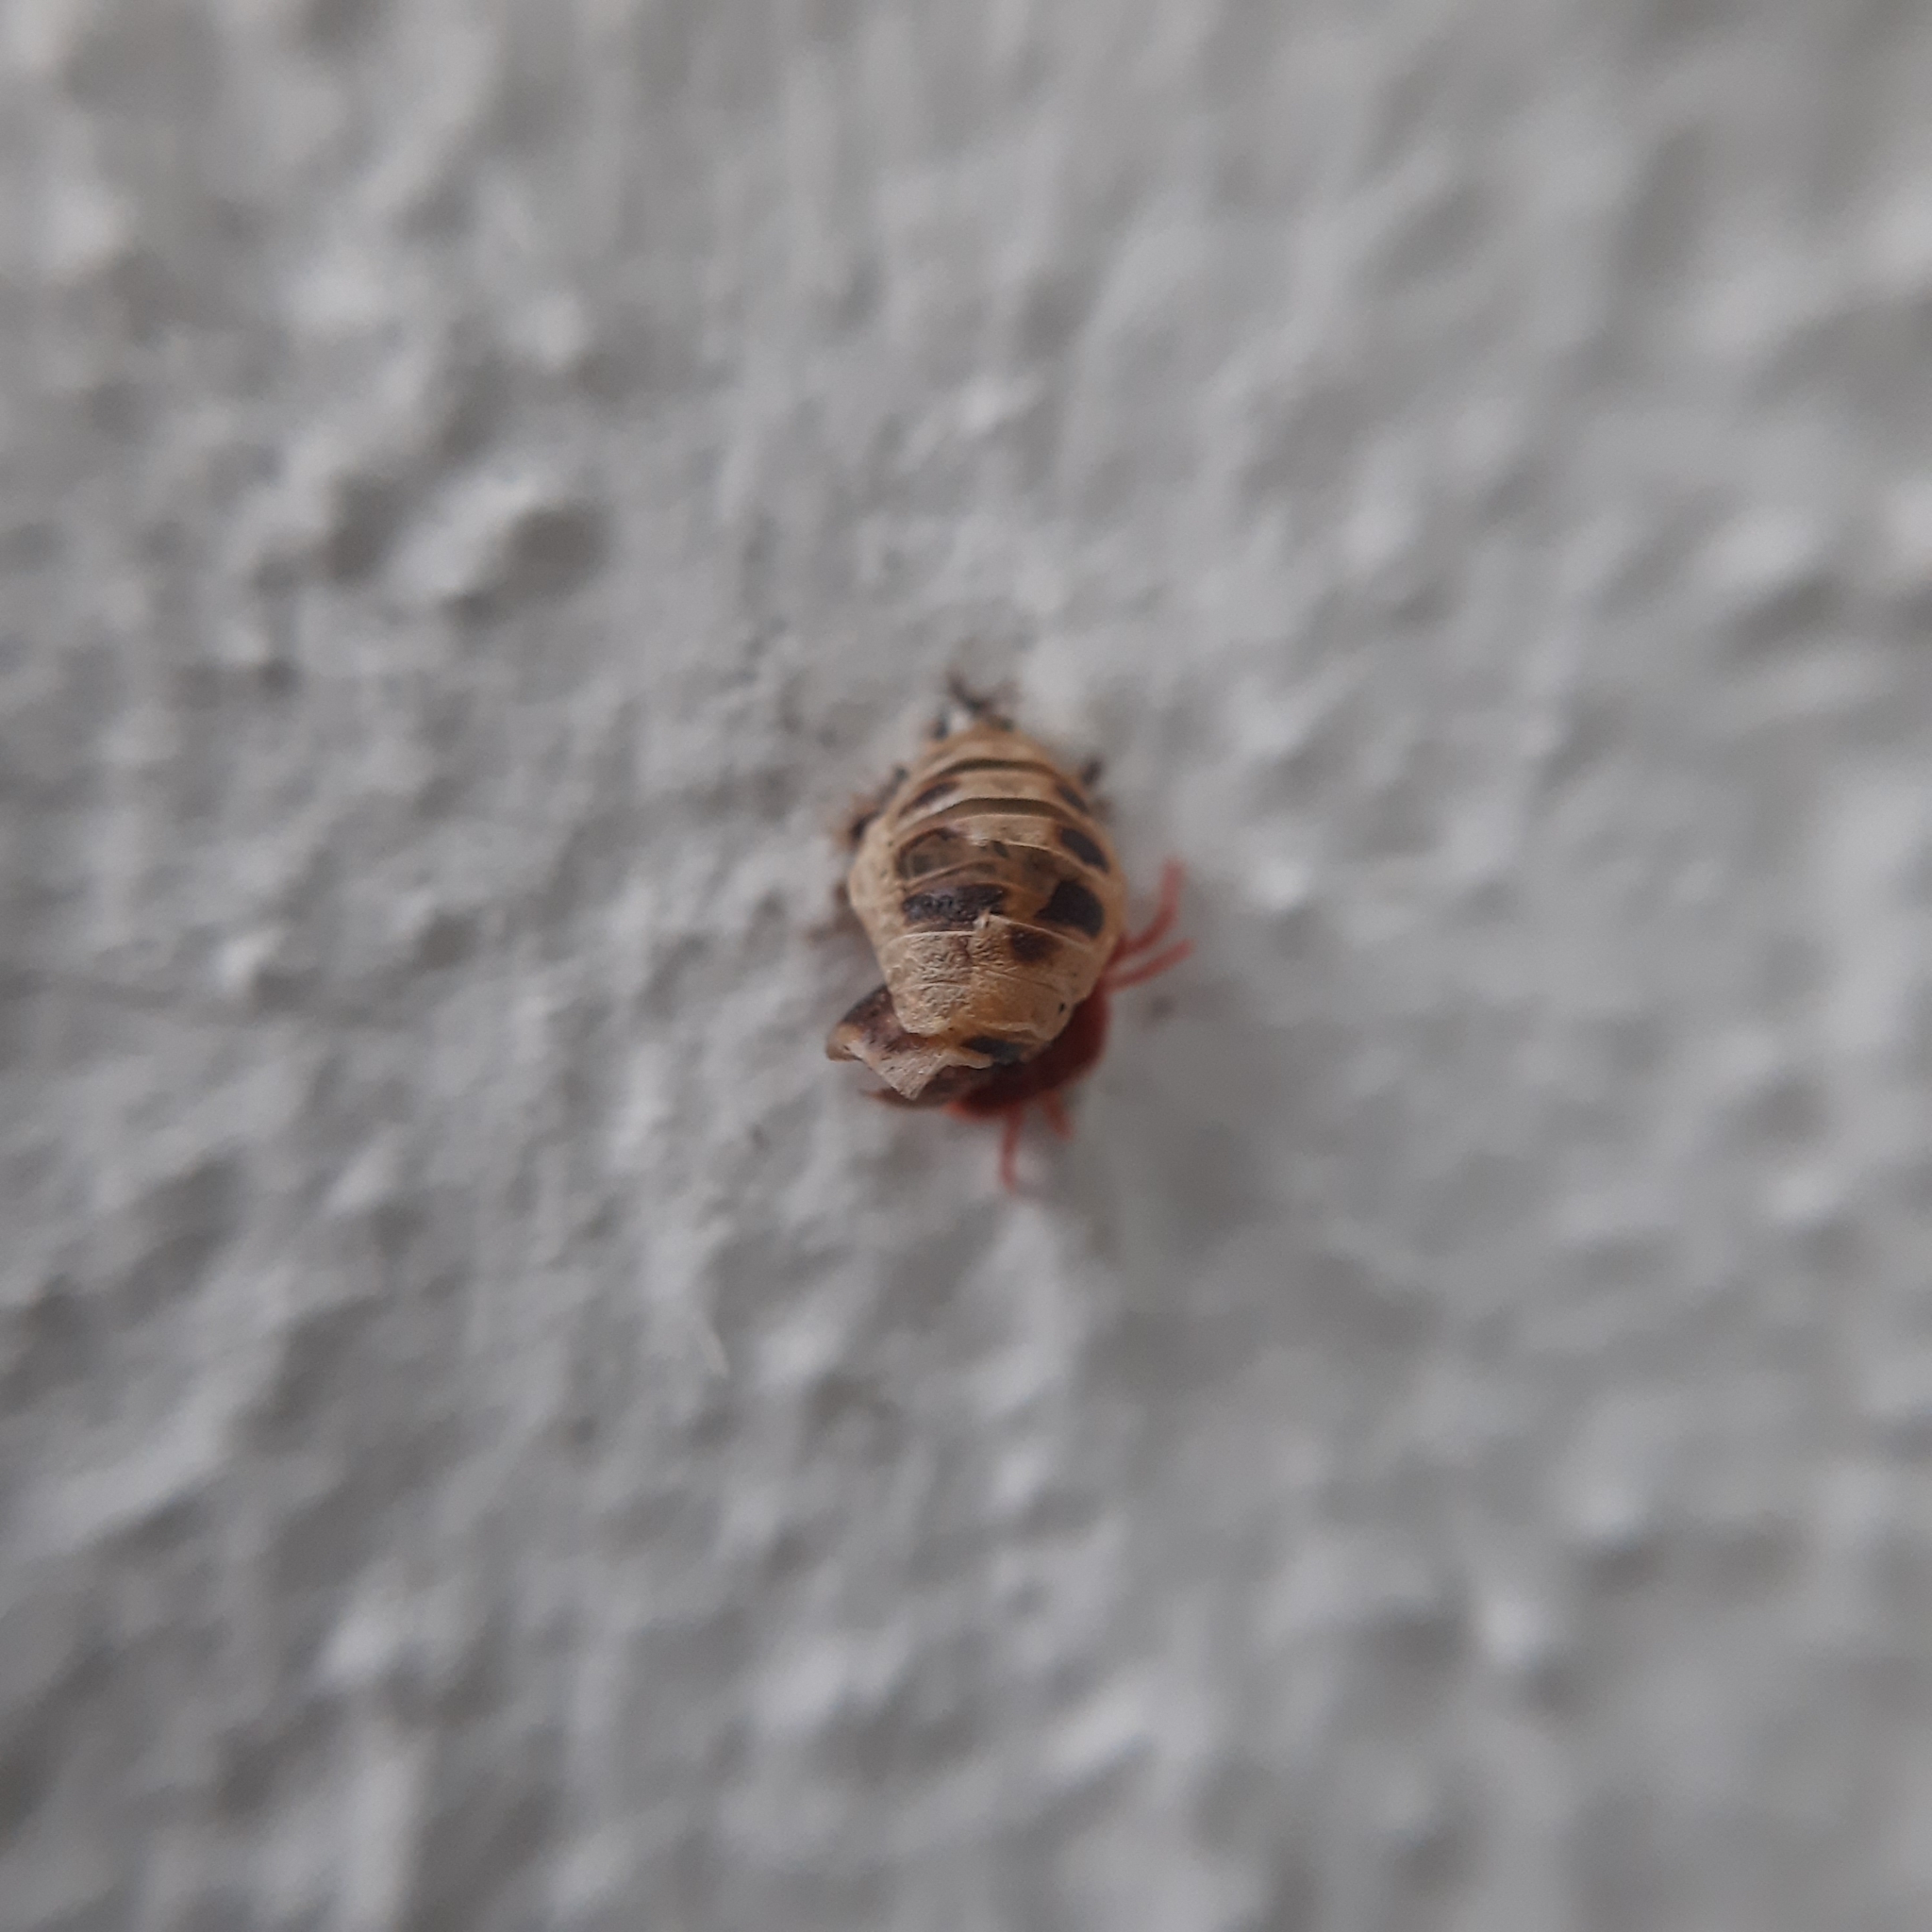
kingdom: Animalia
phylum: Arthropoda
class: Insecta
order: Coleoptera
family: Coccinellidae
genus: Harmonia
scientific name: Harmonia axyridis
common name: Harlequin ladybird
